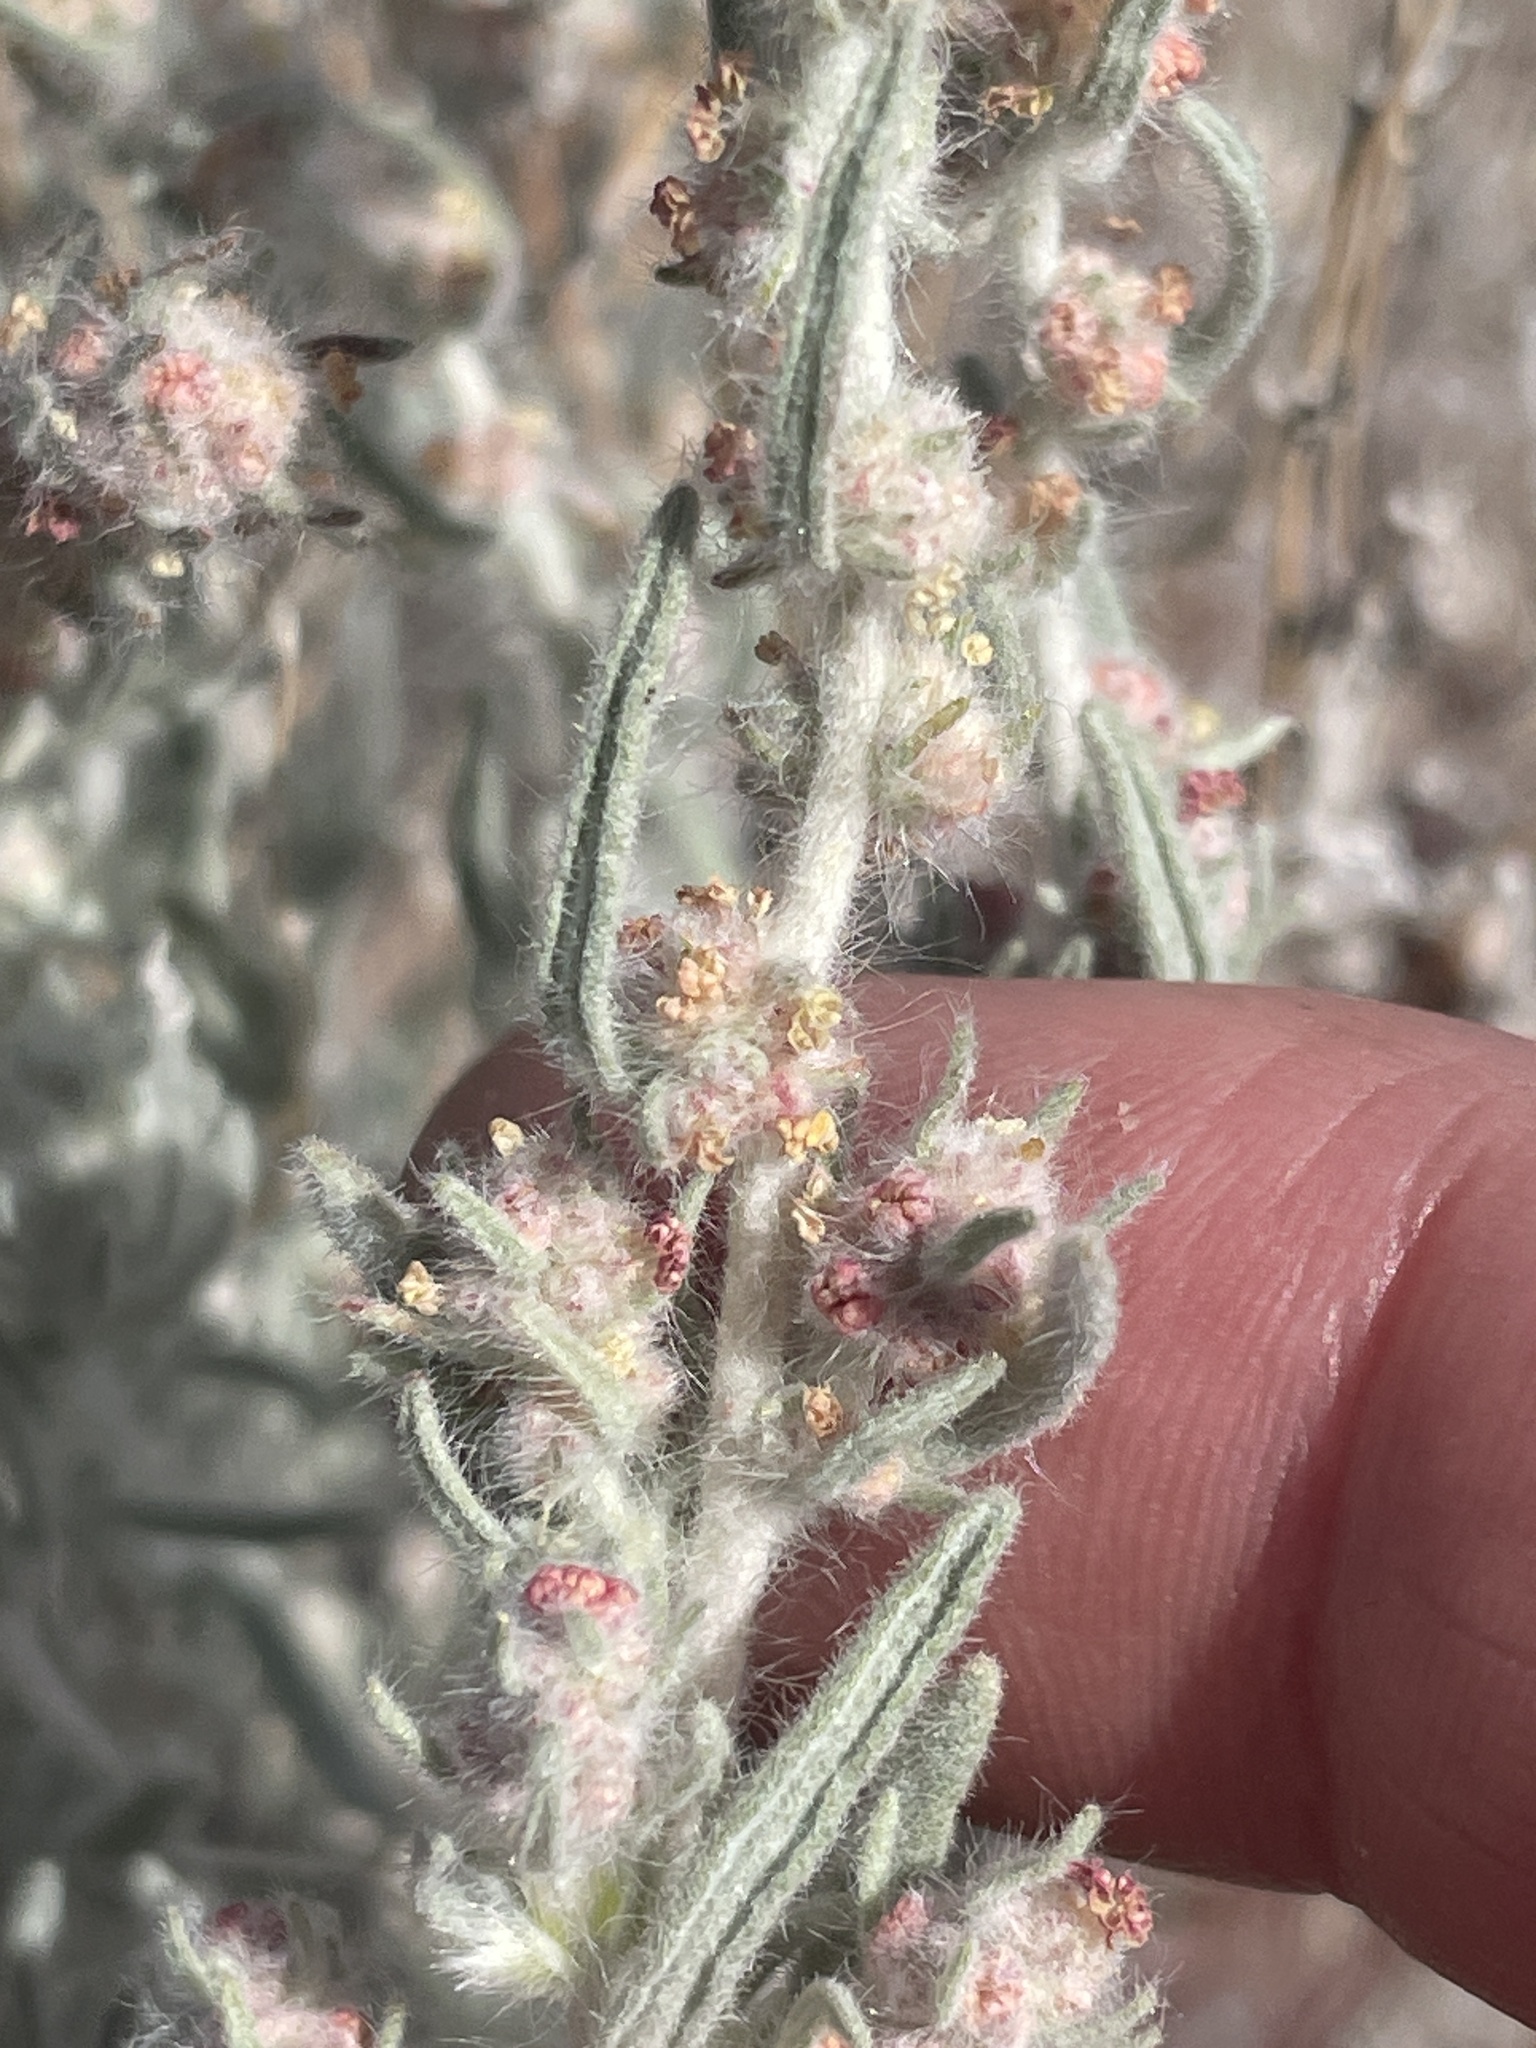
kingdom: Plantae
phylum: Tracheophyta
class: Magnoliopsida
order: Caryophyllales
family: Amaranthaceae
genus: Krascheninnikovia
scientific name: Krascheninnikovia lanata
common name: Winterfat
